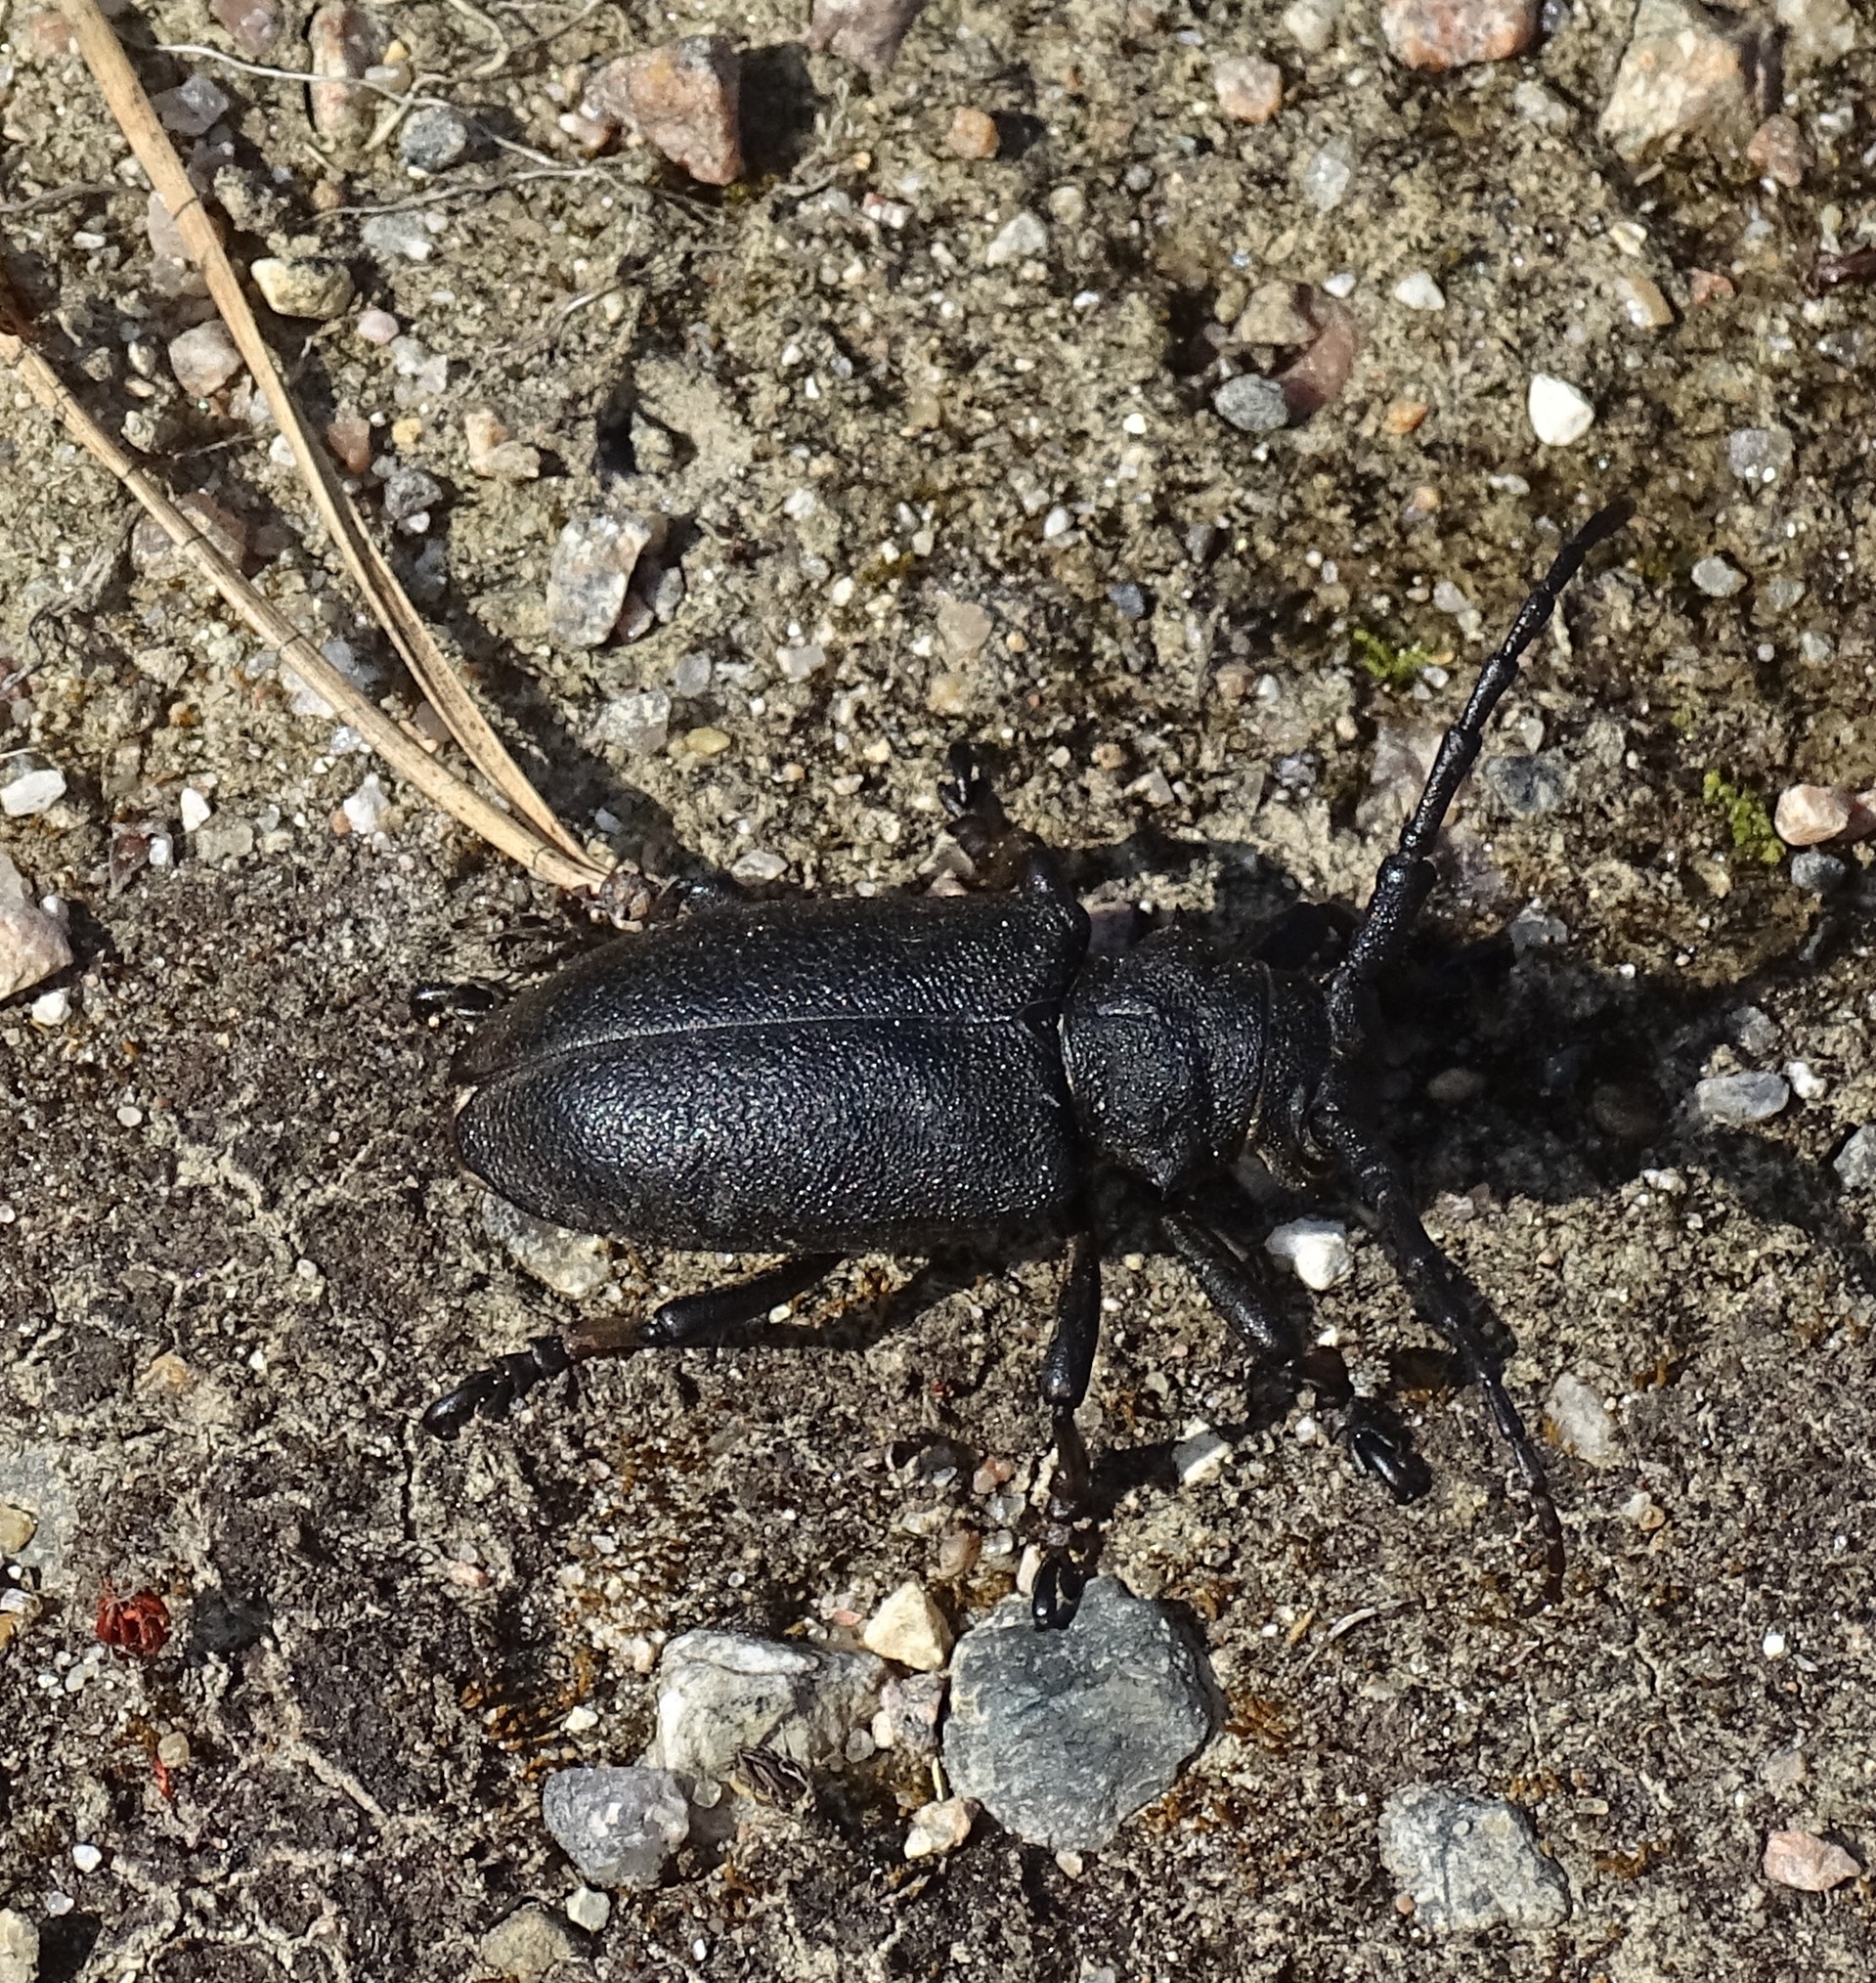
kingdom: Animalia
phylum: Arthropoda
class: Insecta
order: Coleoptera
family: Cerambycidae
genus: Lamia
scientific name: Lamia textor
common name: Weaver beetle
